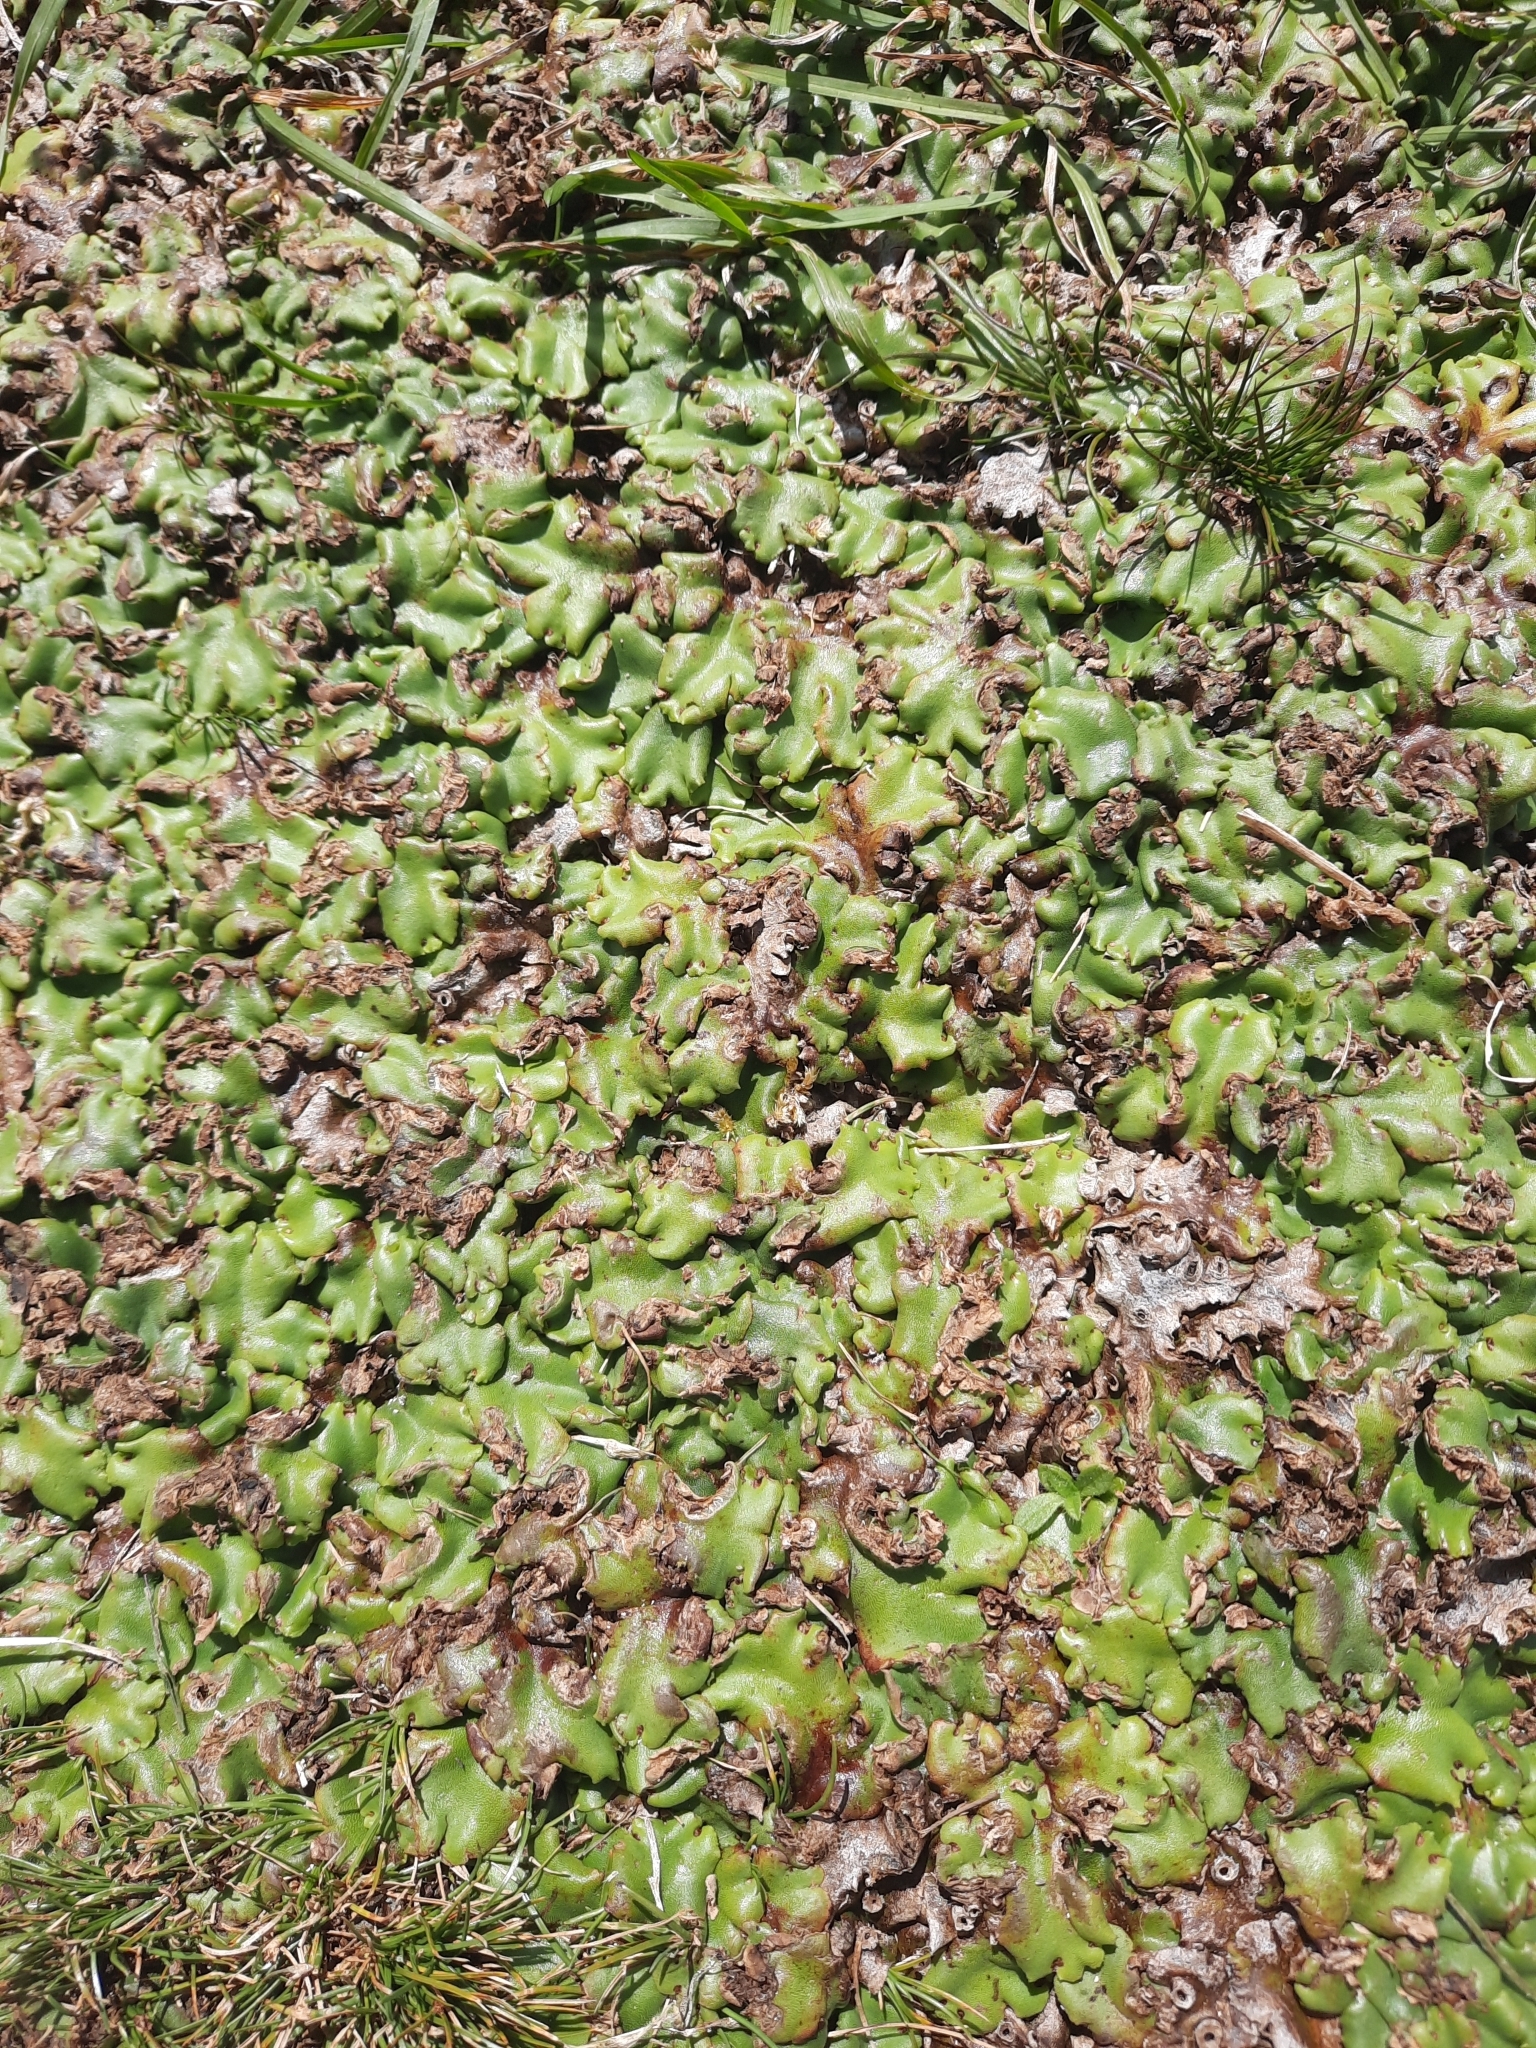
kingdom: Plantae
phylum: Marchantiophyta
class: Marchantiopsida
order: Marchantiales
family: Marchantiaceae
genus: Marchantia
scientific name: Marchantia berteroana
